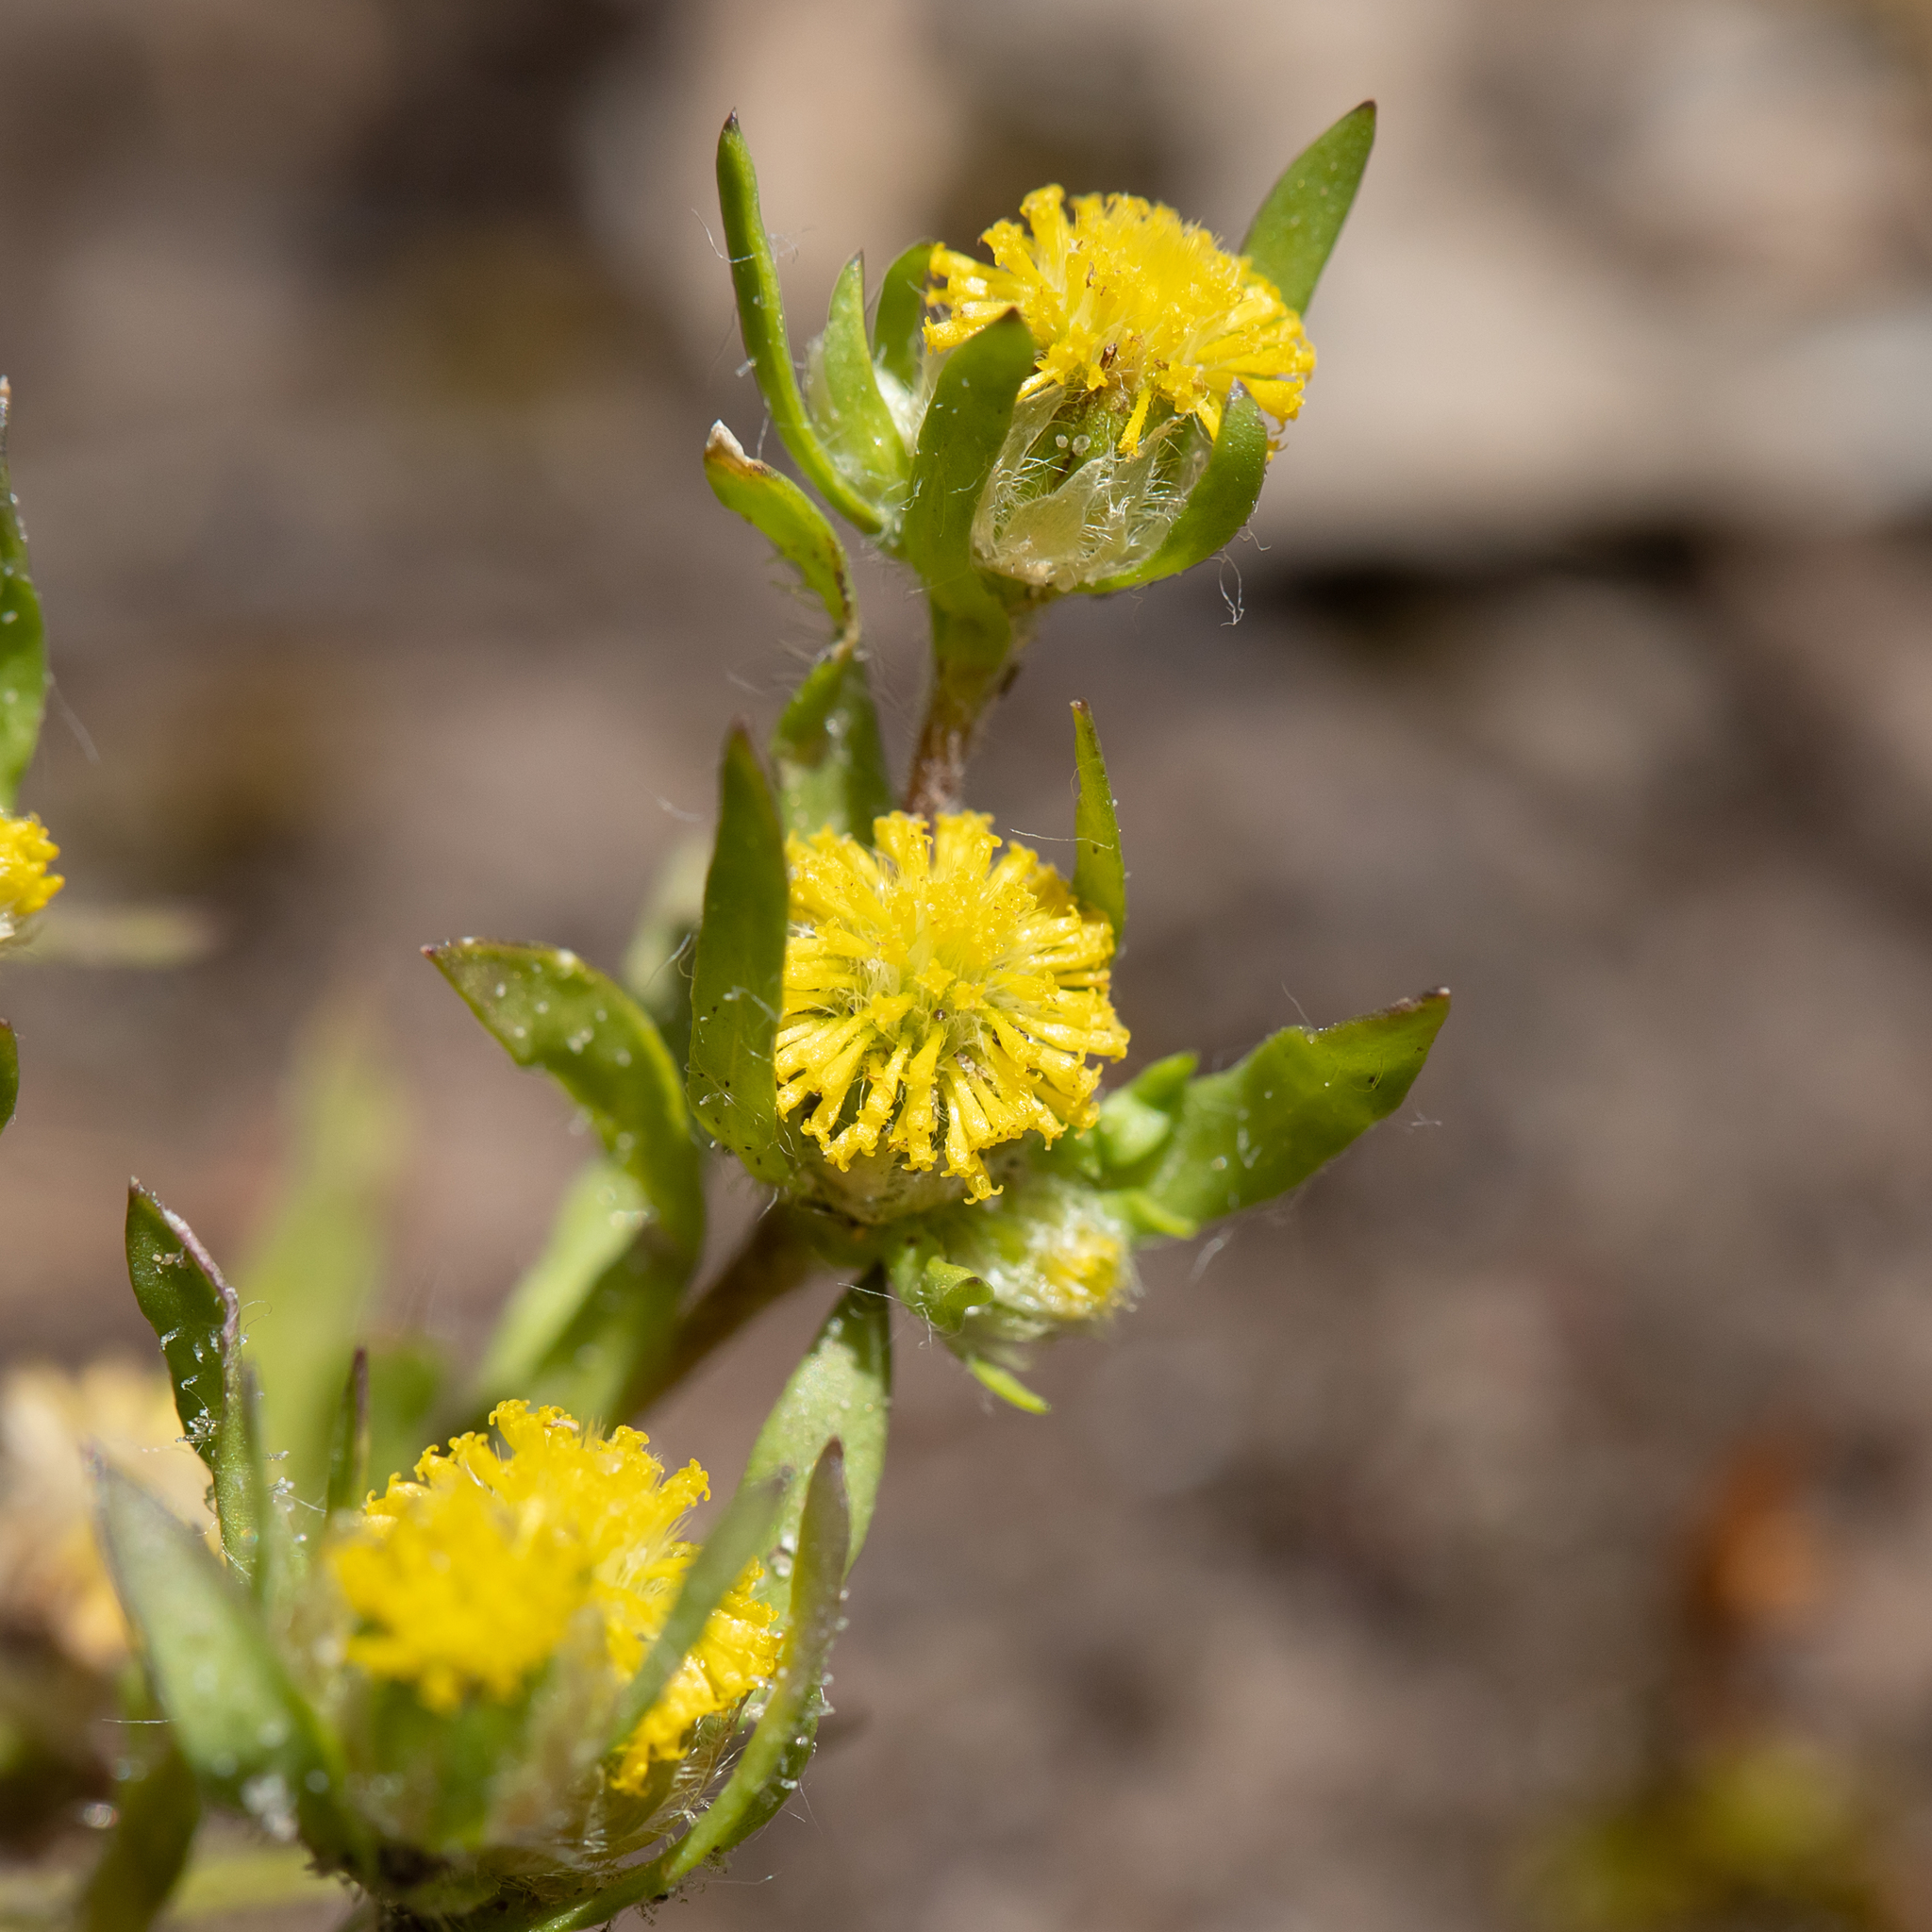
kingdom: Plantae
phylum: Tracheophyta
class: Magnoliopsida
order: Asterales
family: Asteraceae
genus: Triptilodiscus
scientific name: Triptilodiscus pygmaeus
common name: Common sunray
